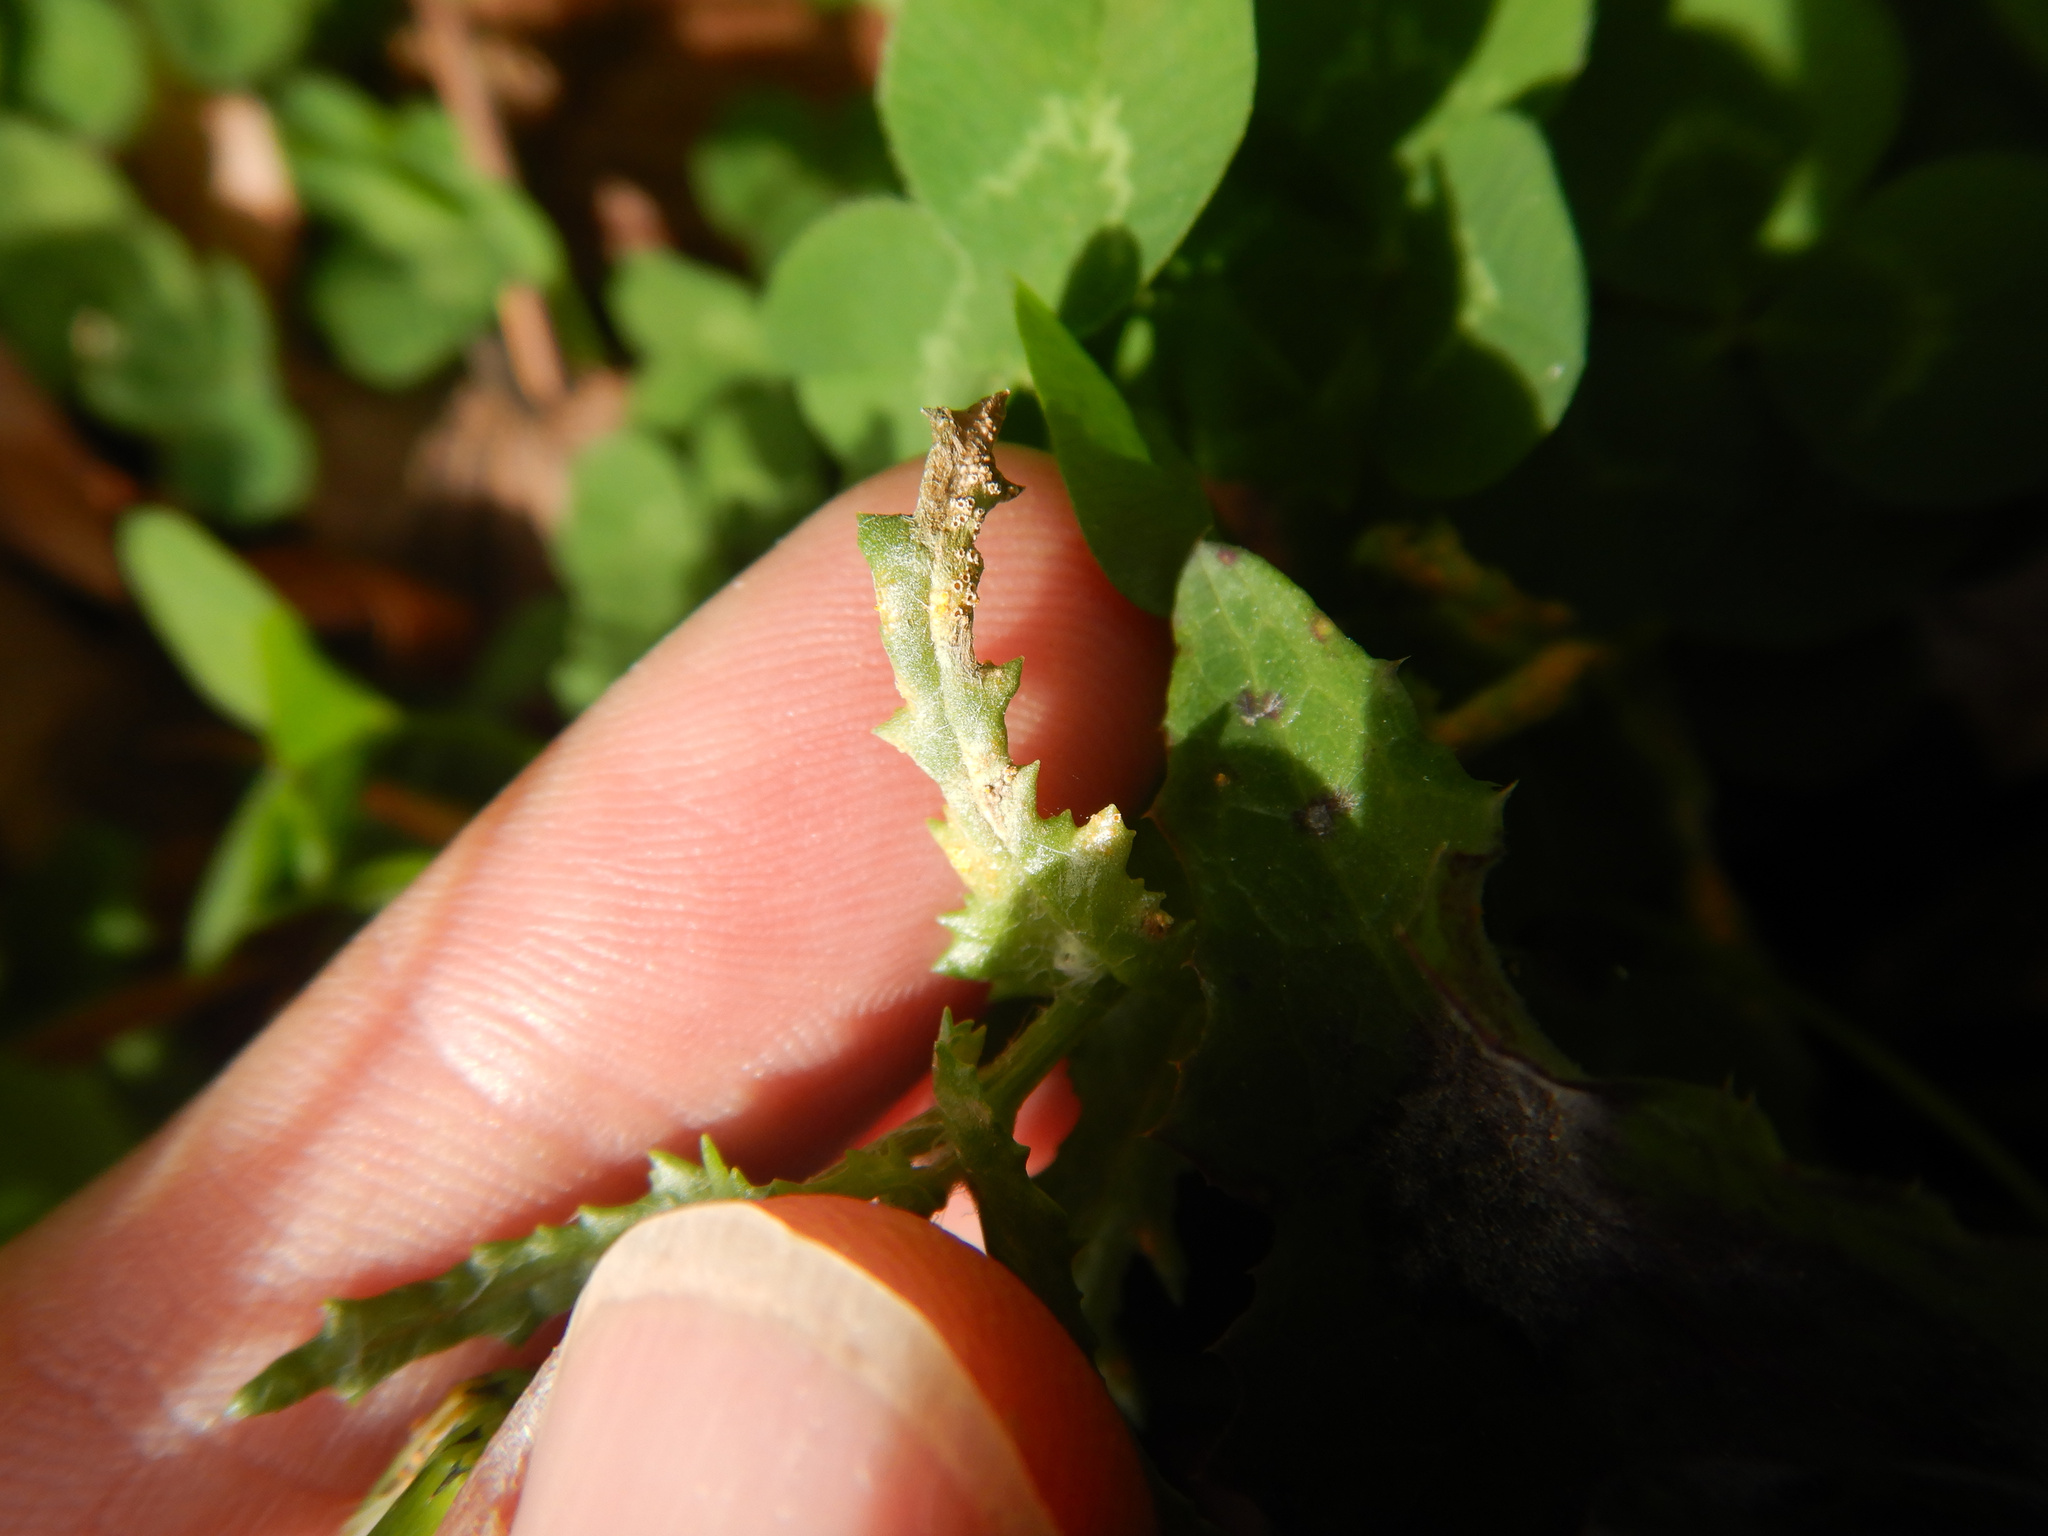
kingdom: Fungi
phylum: Basidiomycota
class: Pucciniomycetes
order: Pucciniales
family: Pucciniaceae
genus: Puccinia
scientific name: Puccinia lagenophorae
